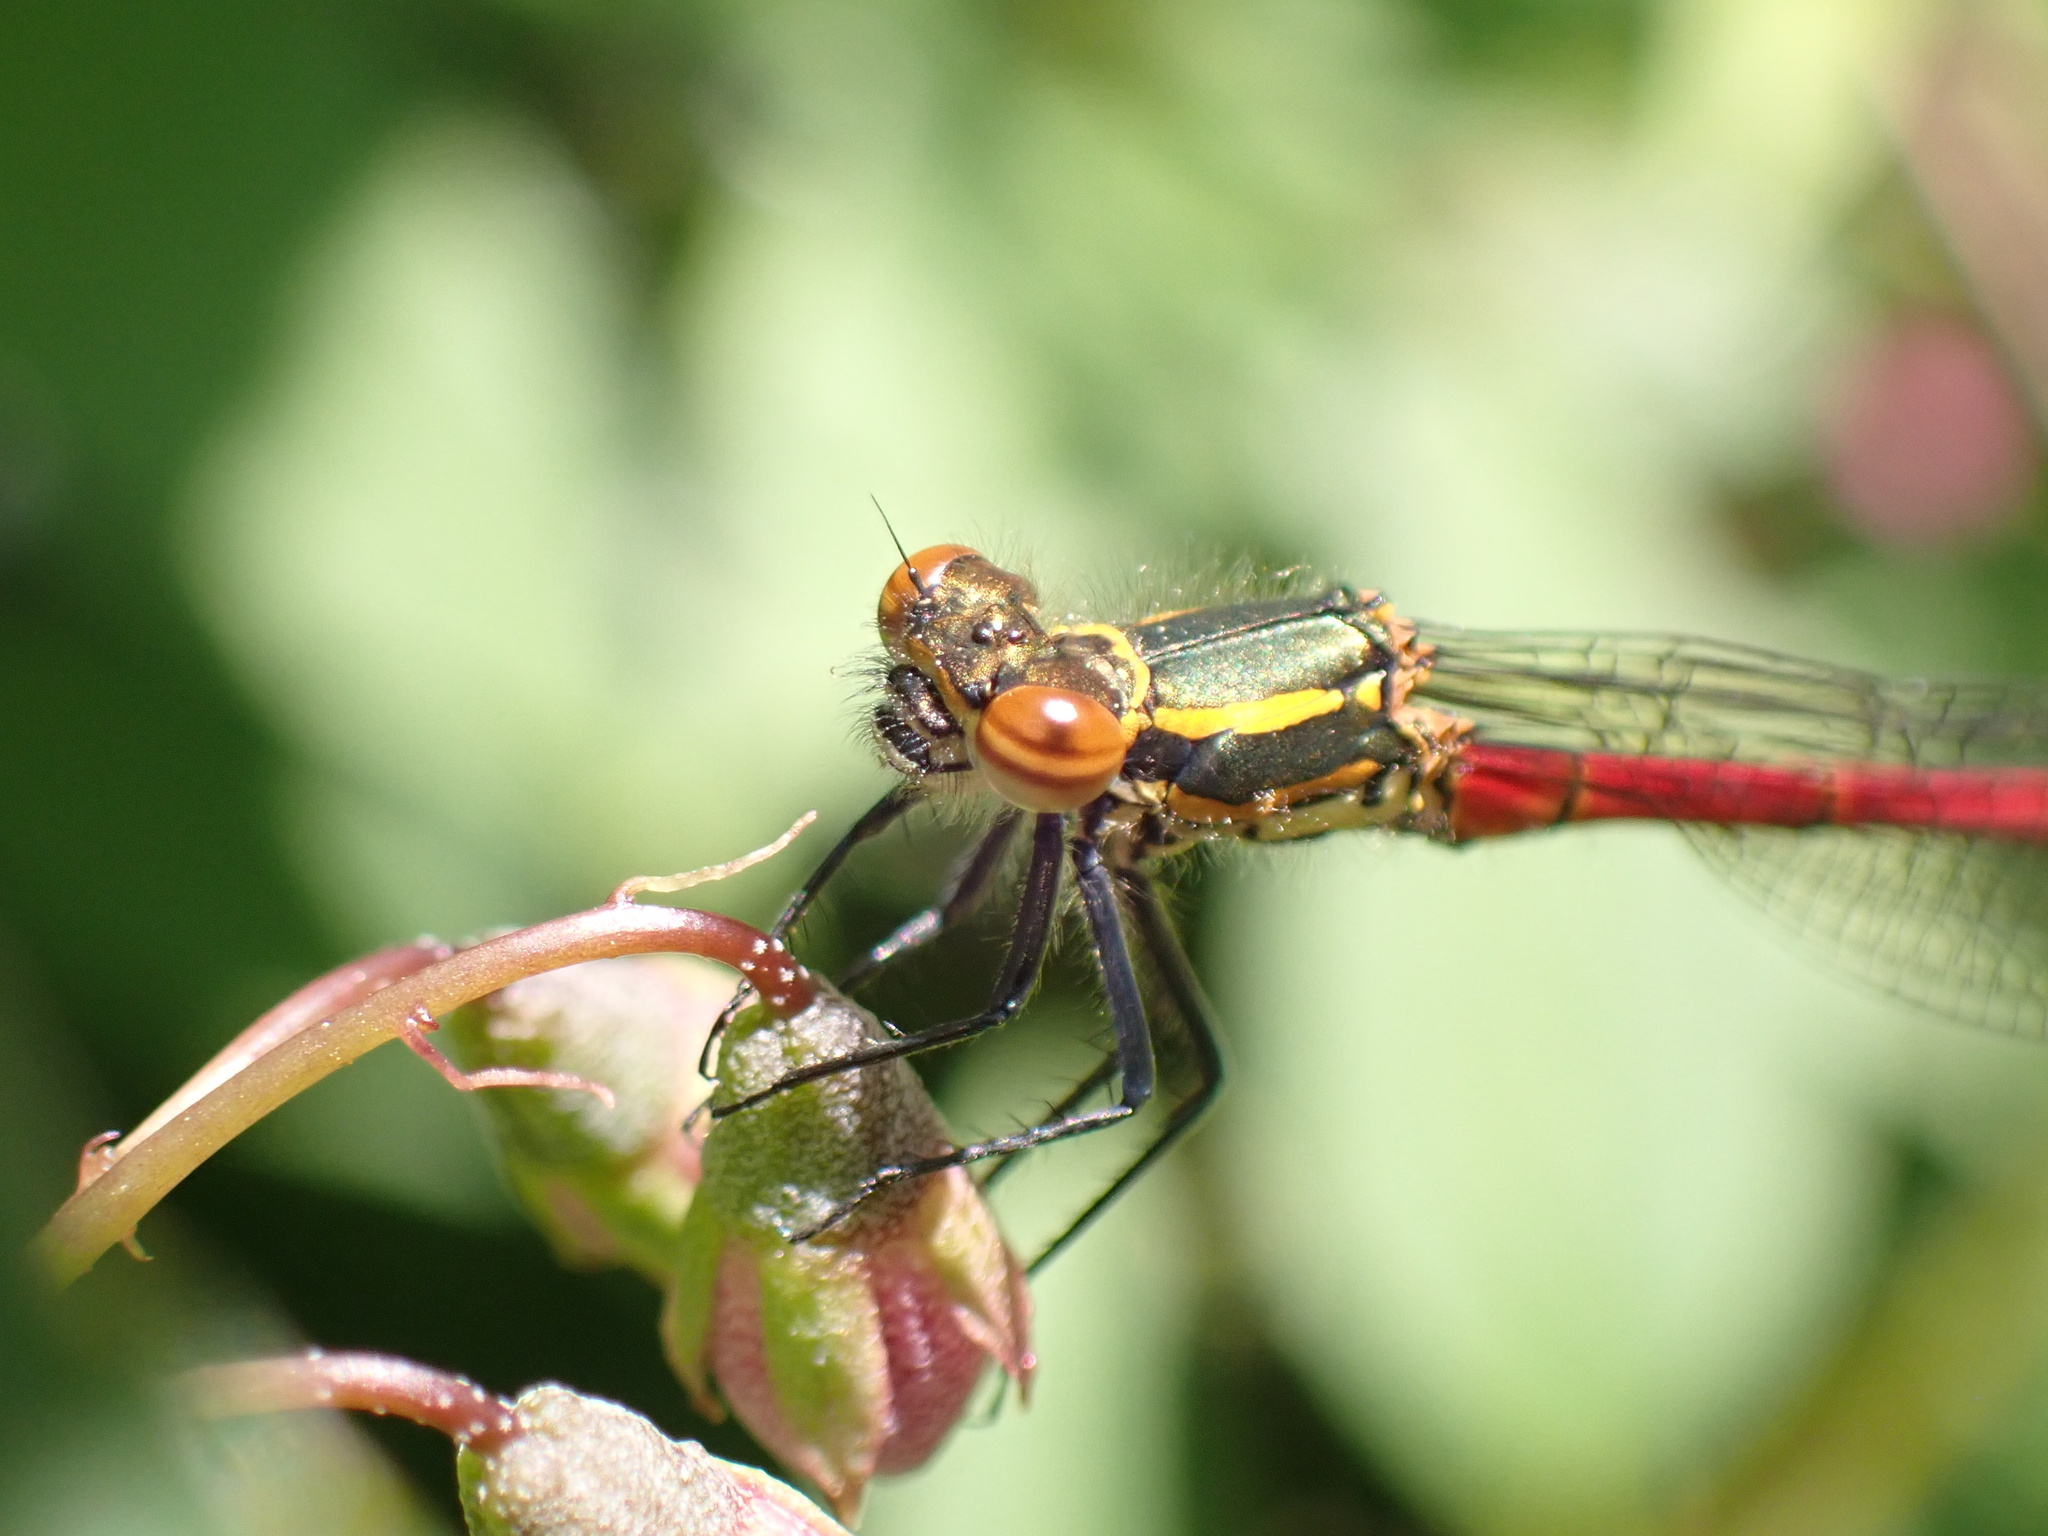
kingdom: Animalia
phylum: Arthropoda
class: Insecta
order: Odonata
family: Coenagrionidae
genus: Pyrrhosoma
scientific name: Pyrrhosoma nymphula
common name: Large red damsel
